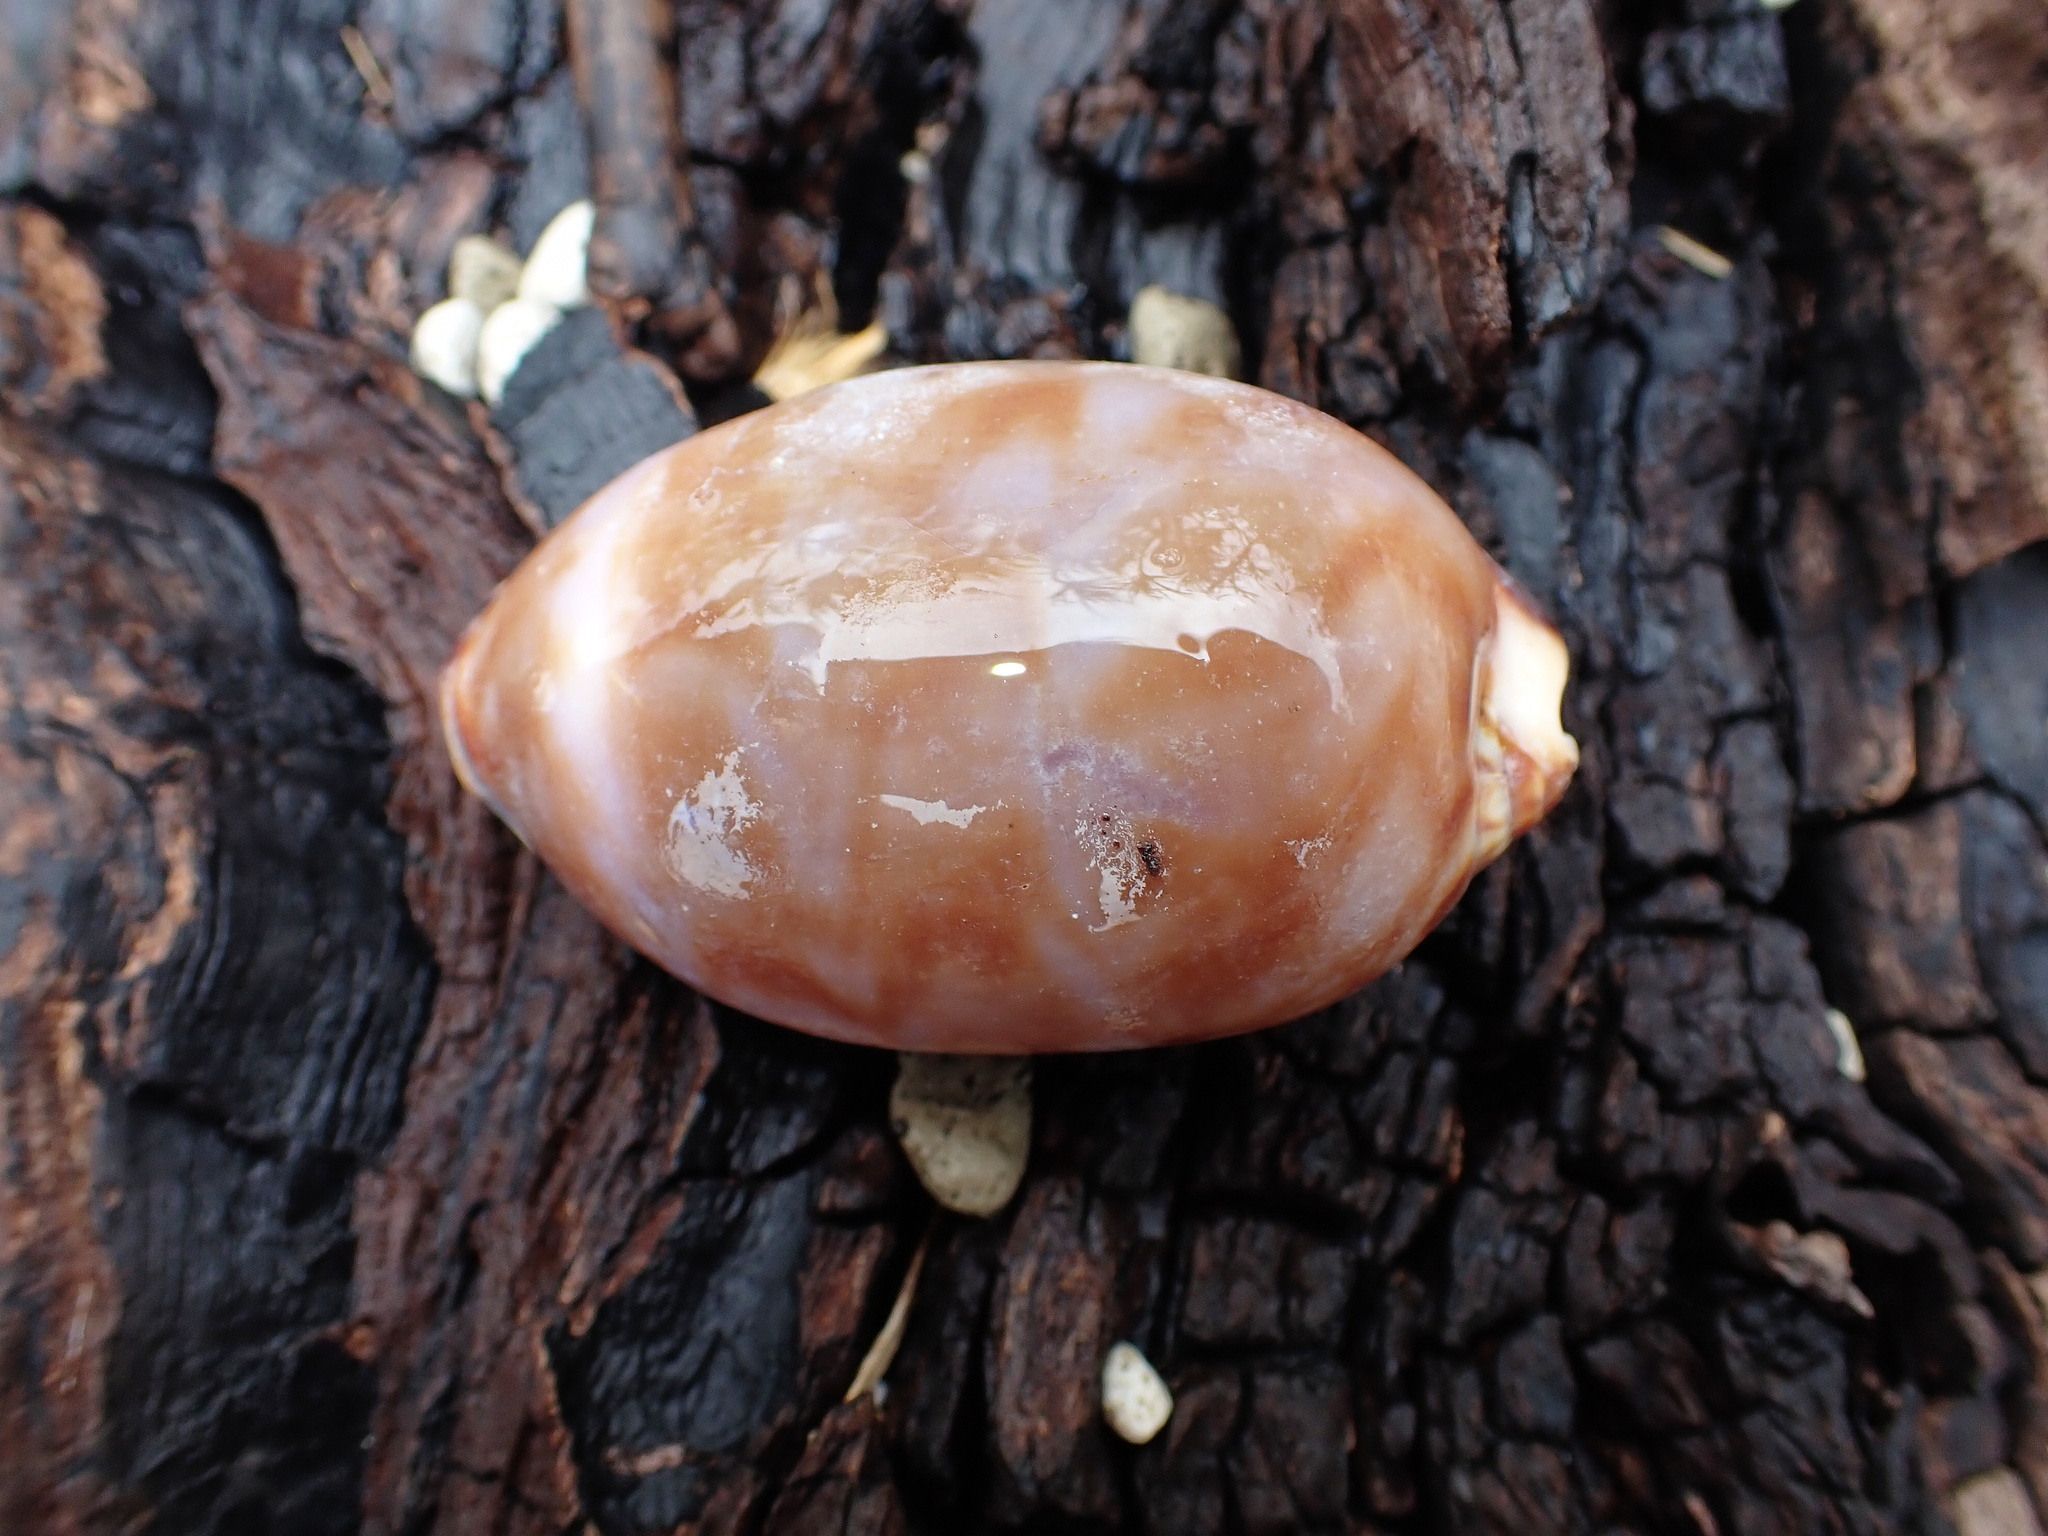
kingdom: Animalia
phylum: Mollusca
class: Gastropoda
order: Littorinimorpha
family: Cypraeidae
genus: Mauritia
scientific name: Mauritia eglantina
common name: Dog-rose cowrie
